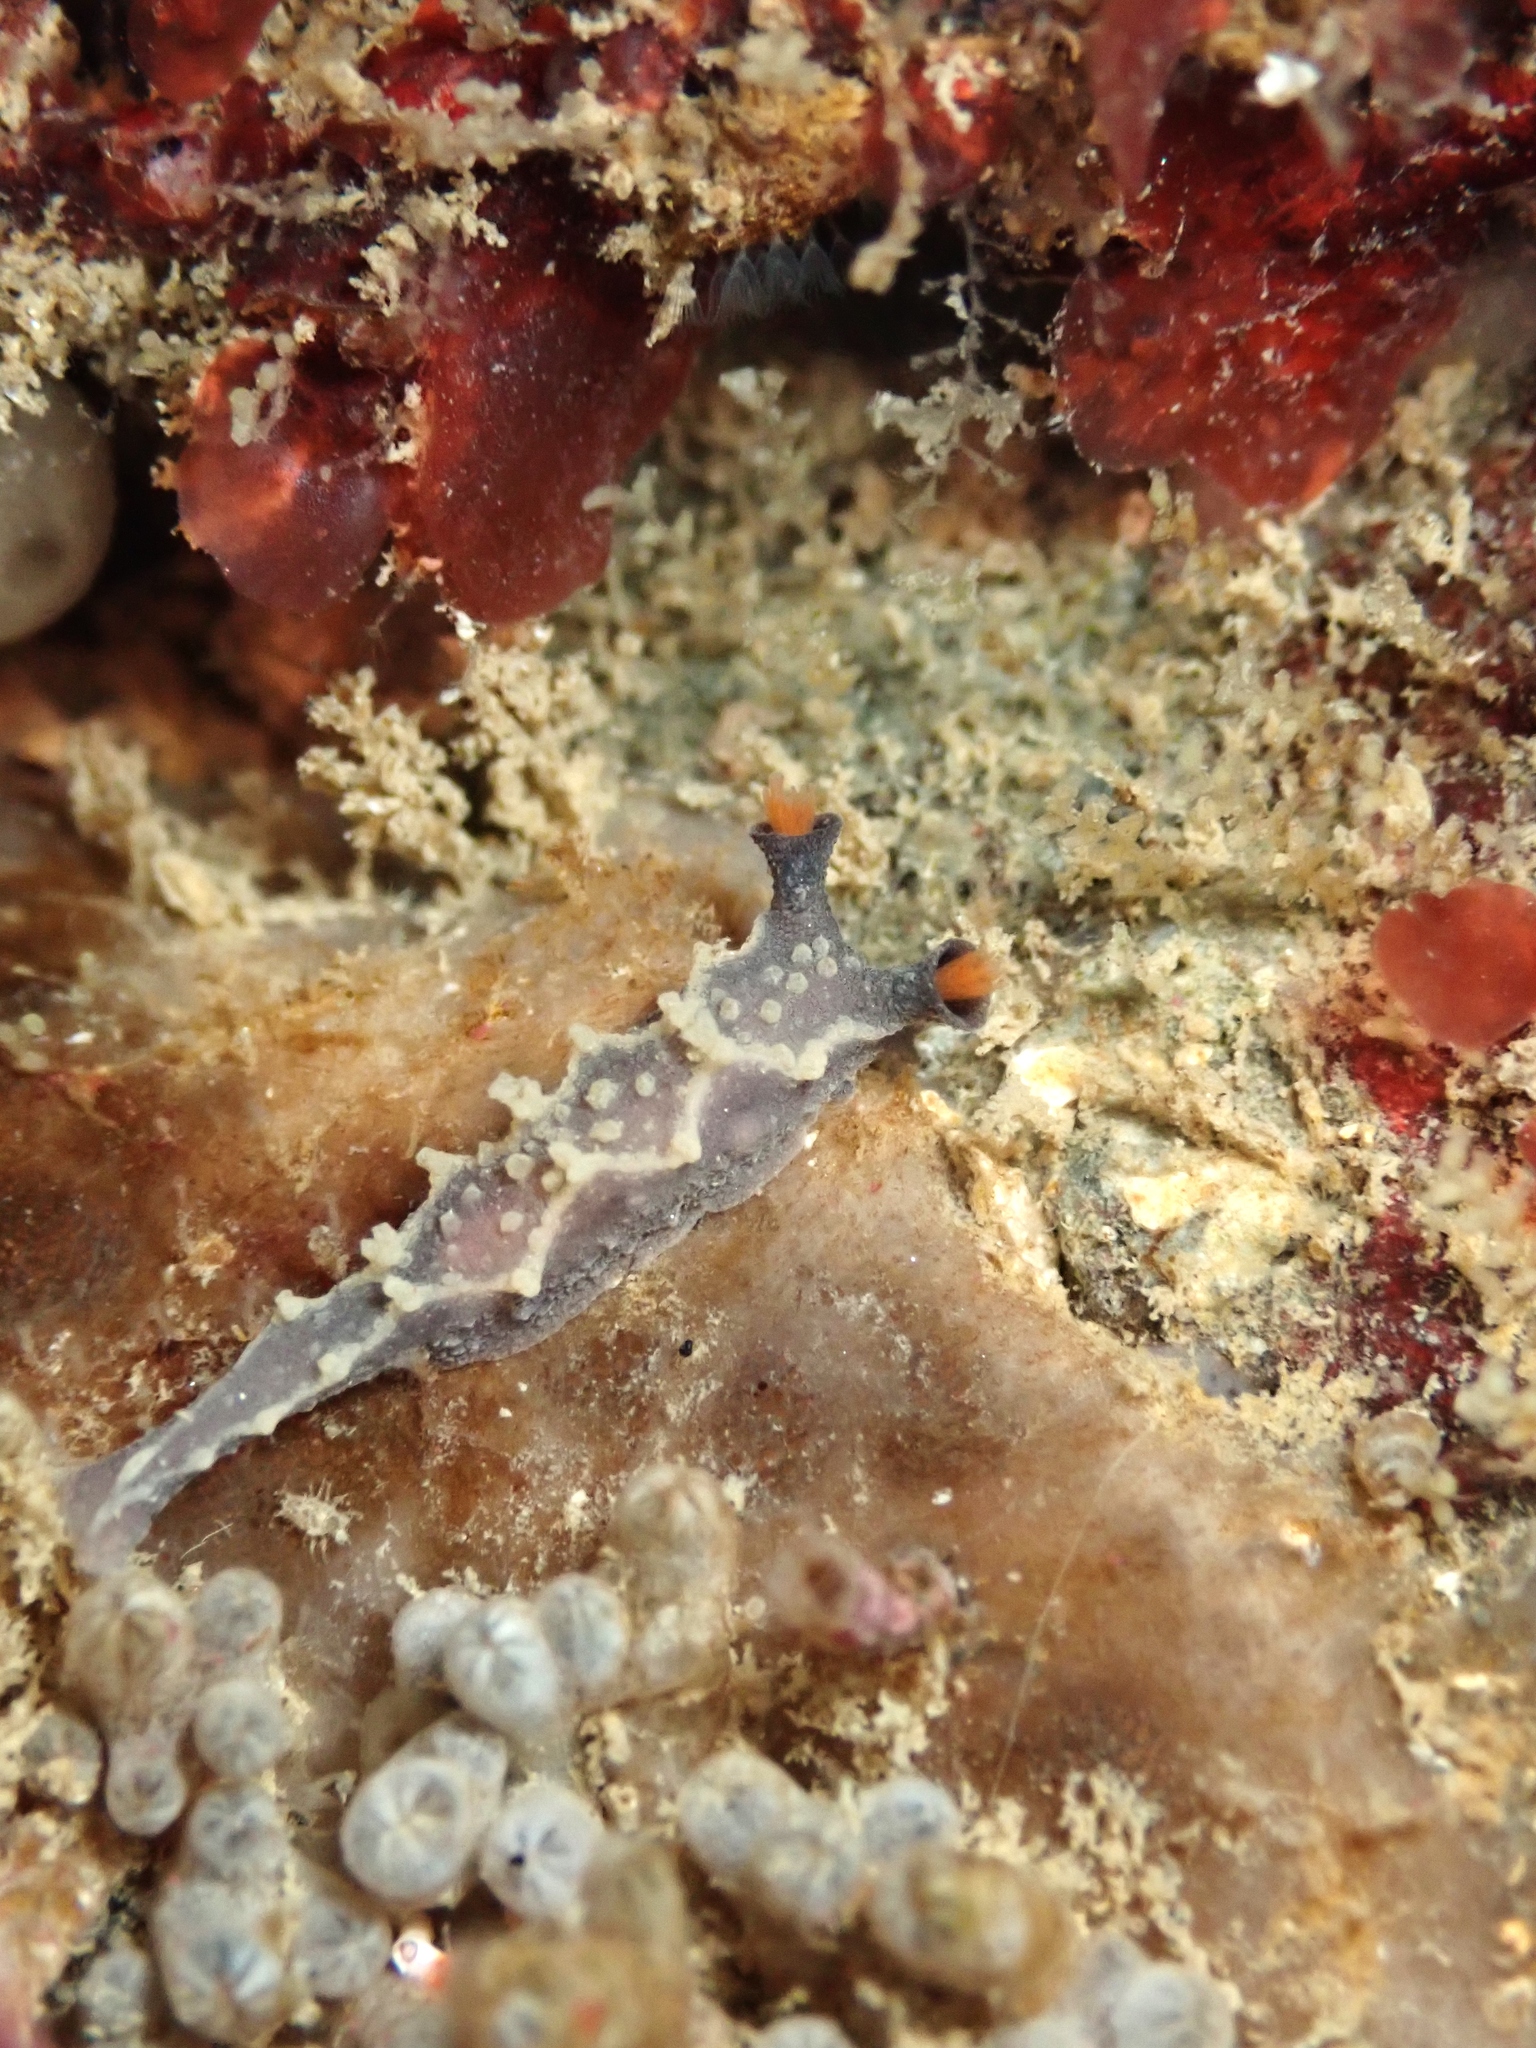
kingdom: Animalia
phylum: Mollusca
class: Gastropoda
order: Nudibranchia
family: Tritoniidae
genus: Tritonia
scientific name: Tritonia flemingi
